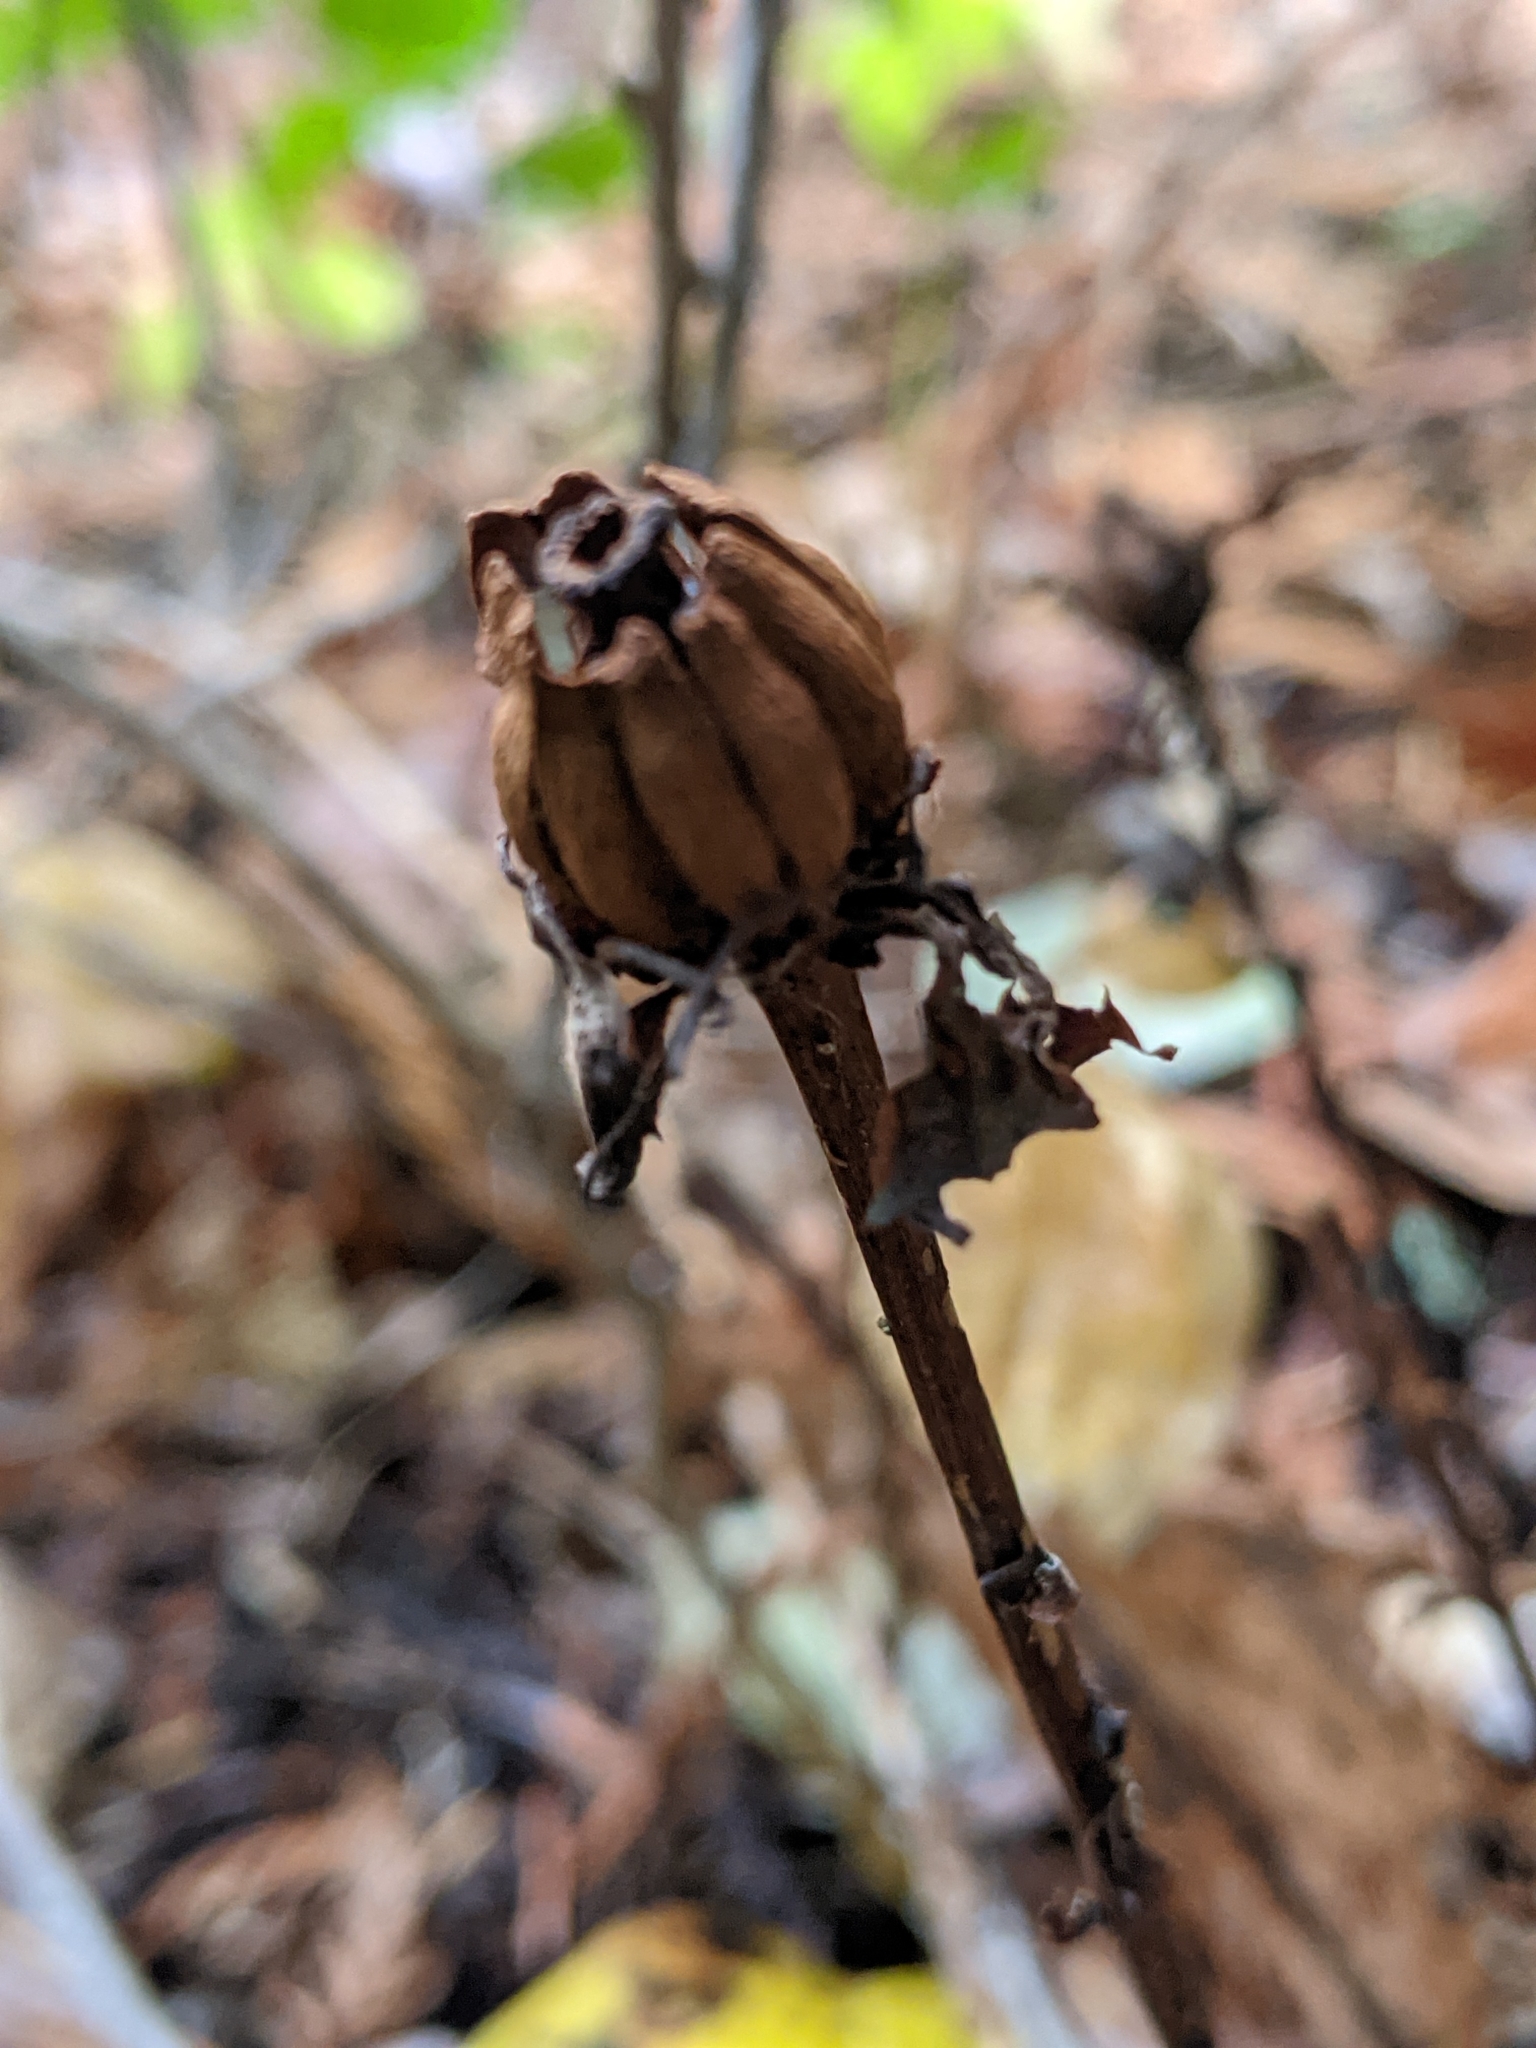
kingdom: Plantae
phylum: Tracheophyta
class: Magnoliopsida
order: Ericales
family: Ericaceae
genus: Monotropa
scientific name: Monotropa uniflora
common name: Convulsion root
